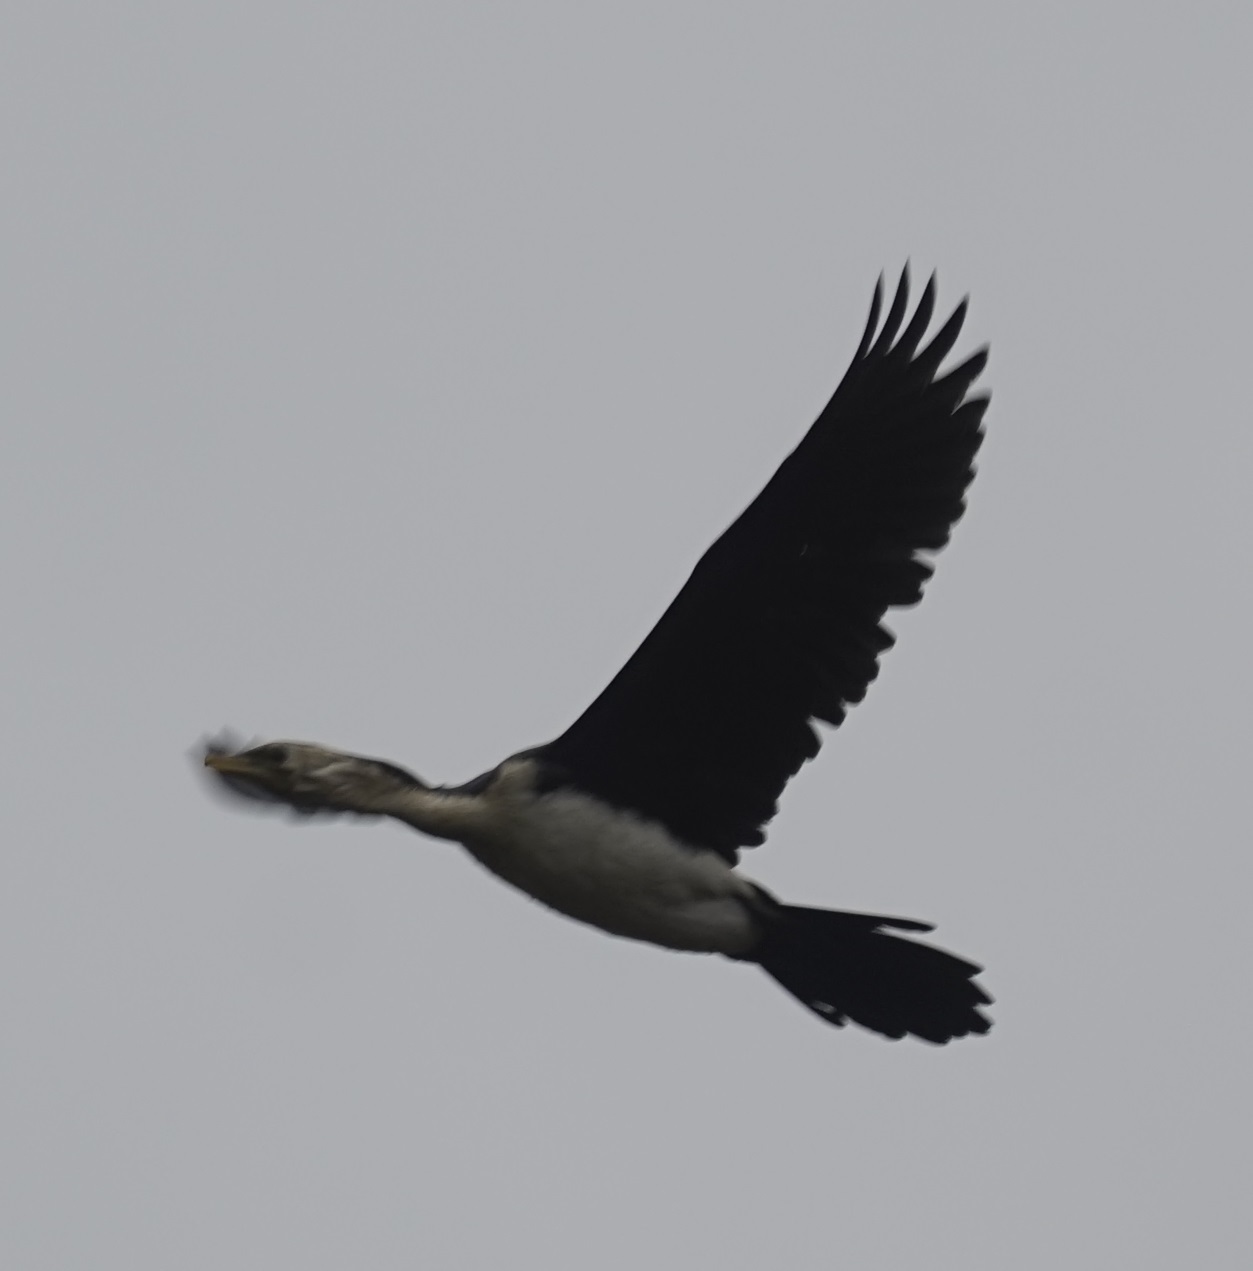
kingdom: Animalia
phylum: Chordata
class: Aves
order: Suliformes
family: Phalacrocoracidae
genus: Microcarbo
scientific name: Microcarbo melanoleucos
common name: Little pied cormorant
